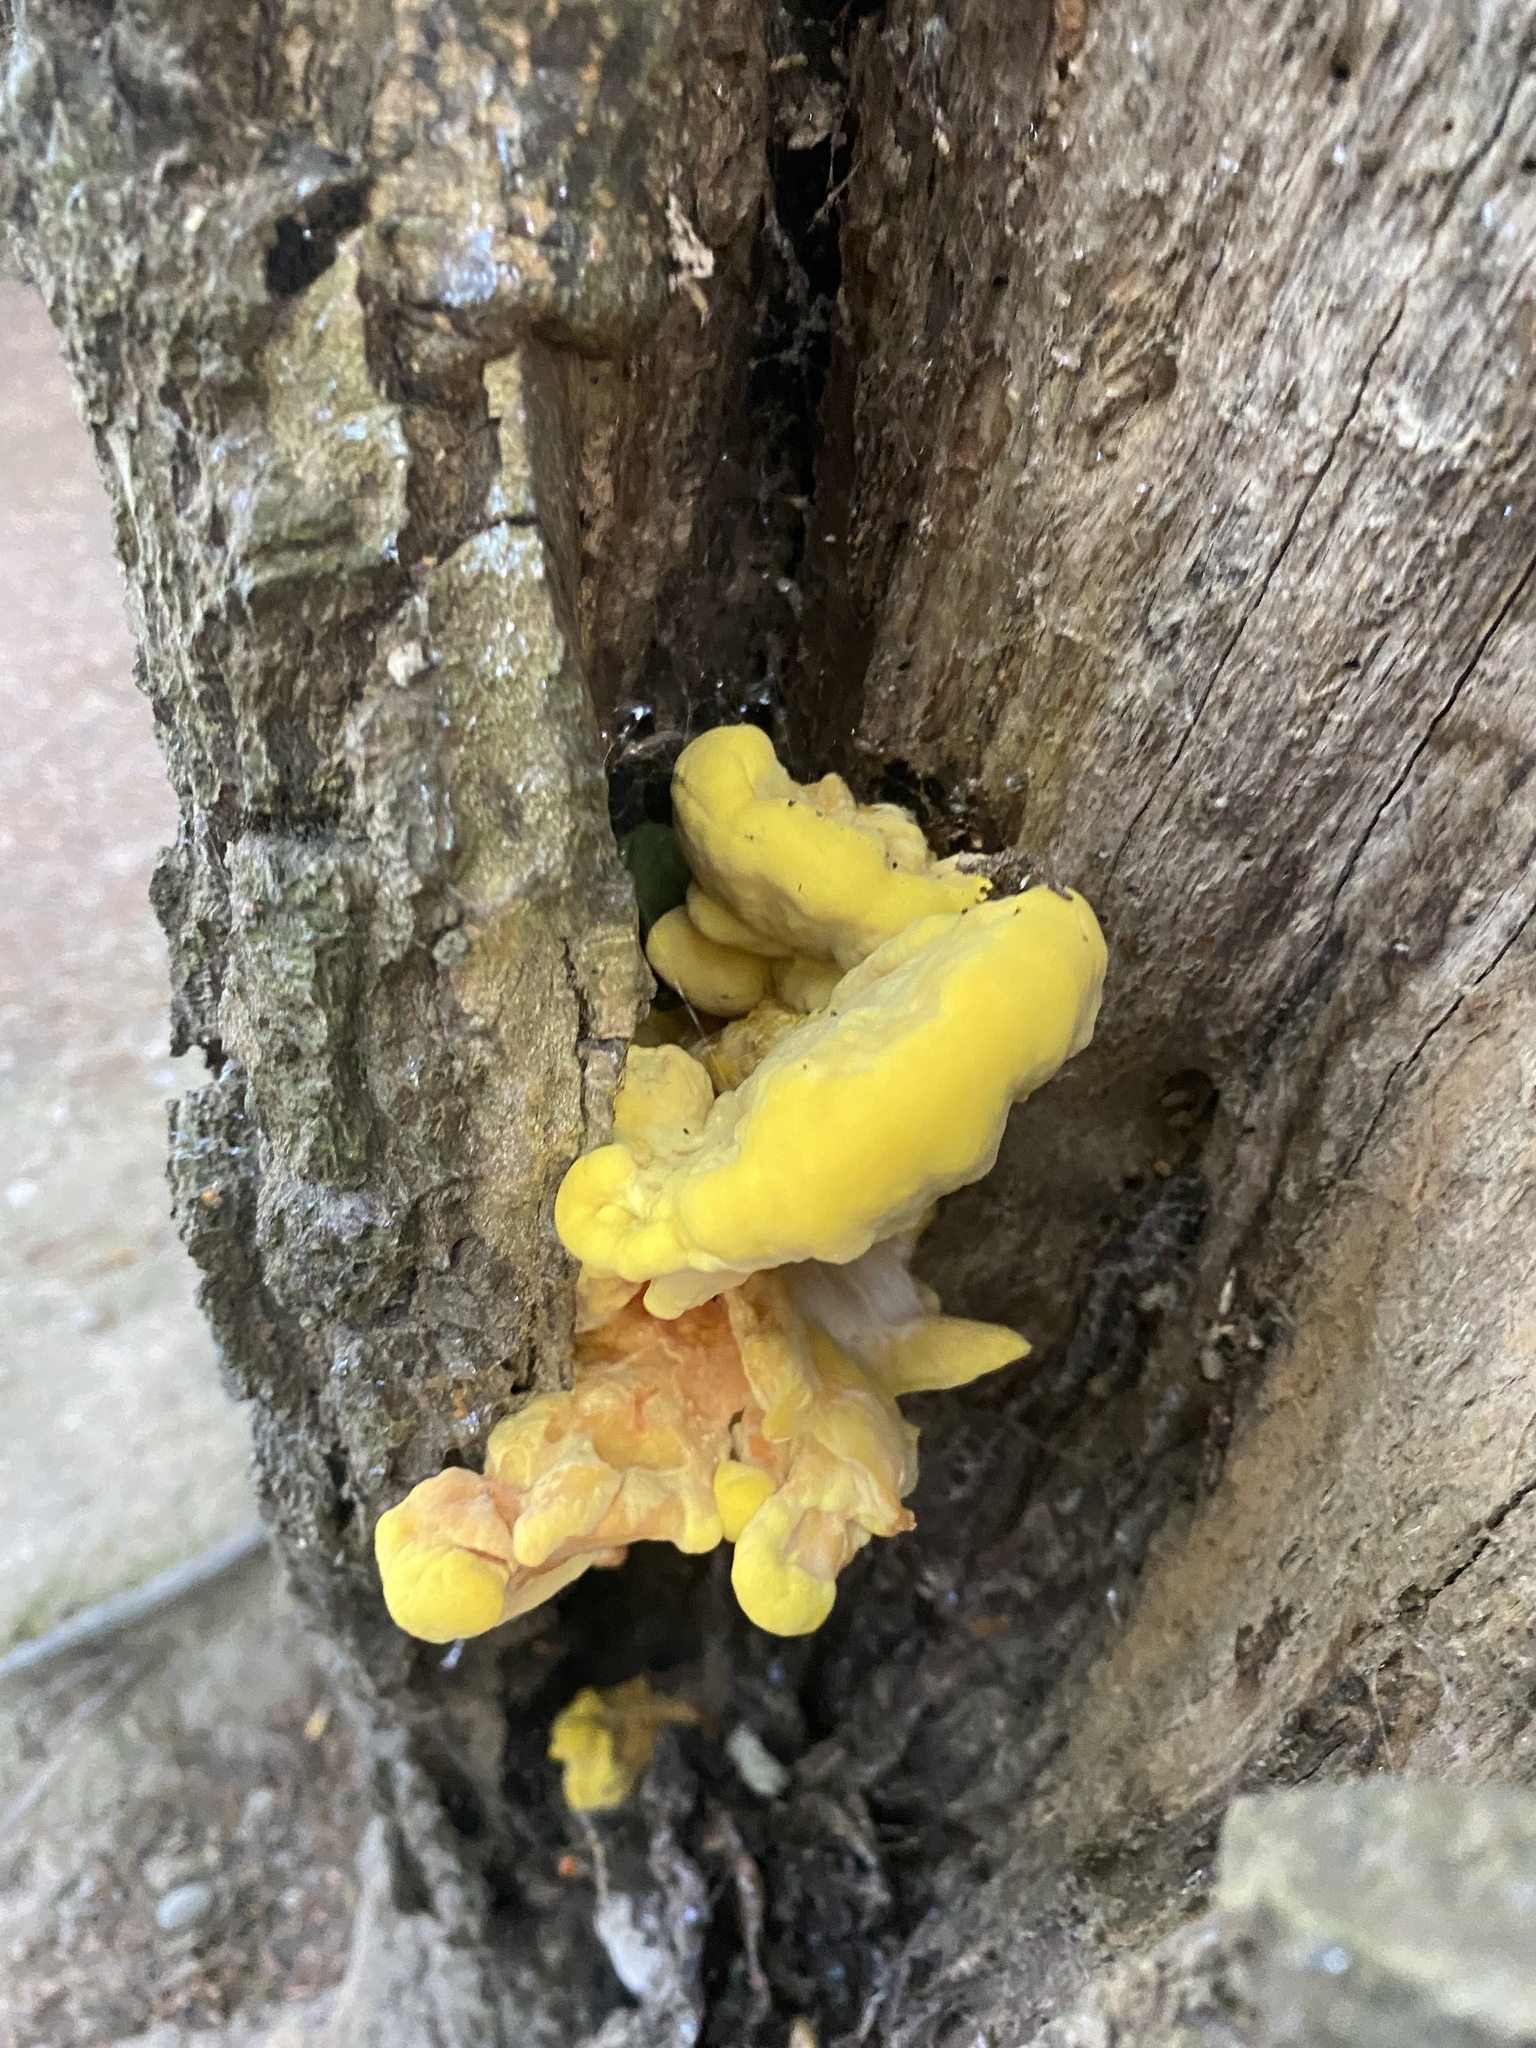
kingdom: Fungi
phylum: Basidiomycota
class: Agaricomycetes
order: Polyporales
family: Laetiporaceae
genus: Laetiporus
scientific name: Laetiporus sulphureus
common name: Chicken of the woods
